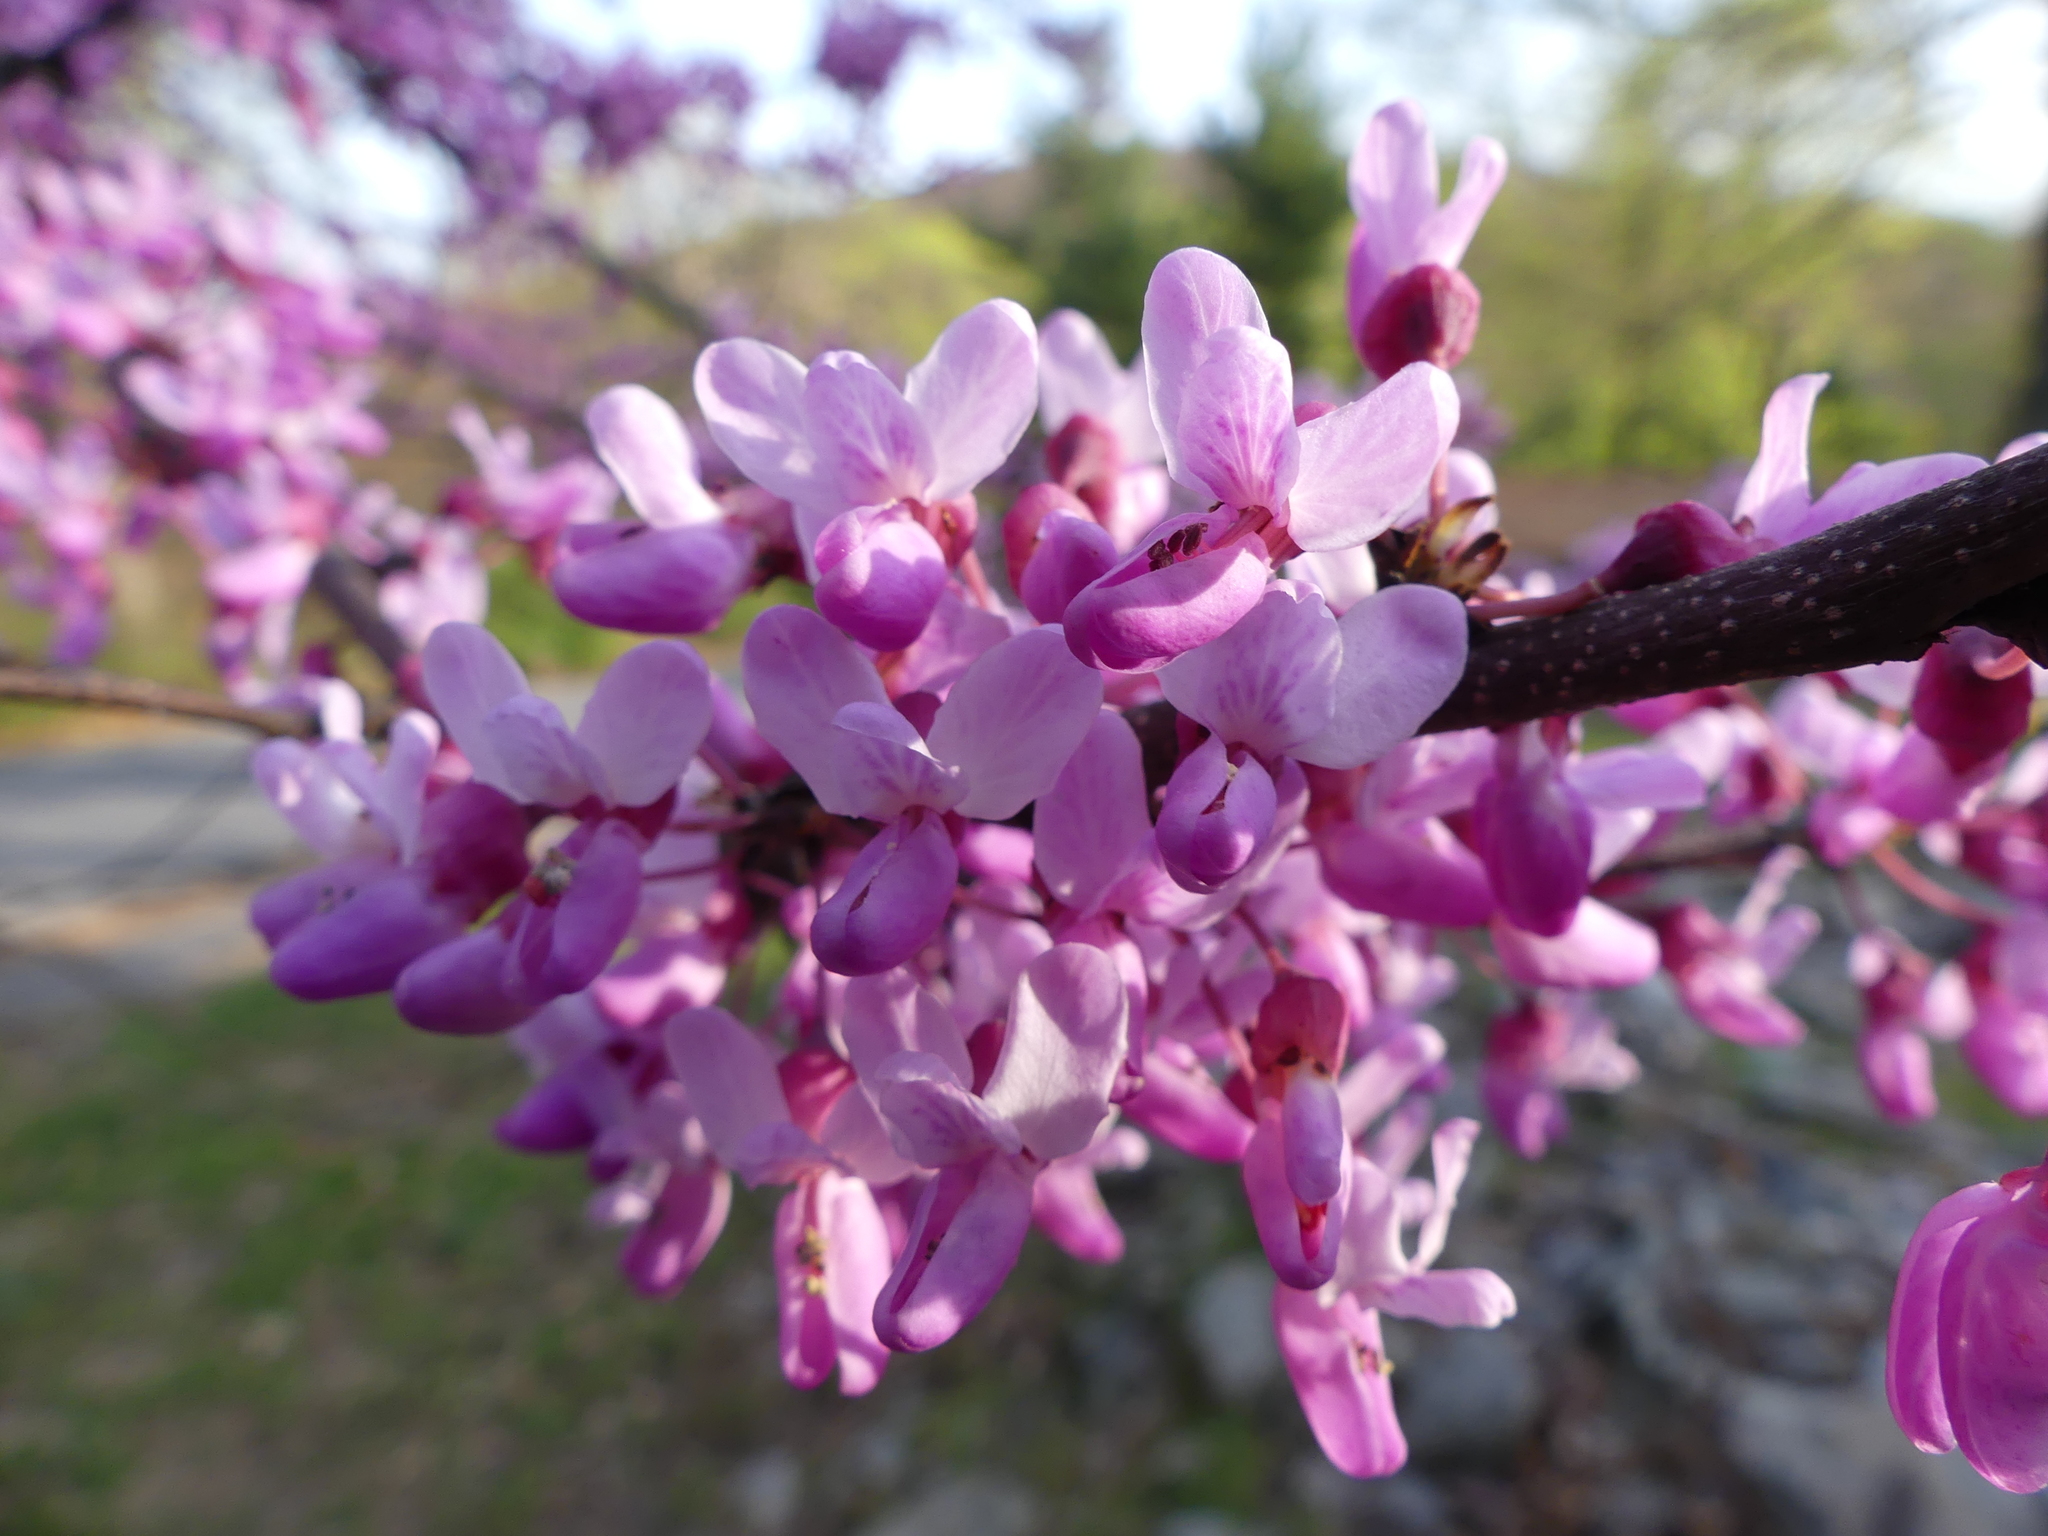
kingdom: Plantae
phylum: Tracheophyta
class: Magnoliopsida
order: Fabales
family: Fabaceae
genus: Cercis
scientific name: Cercis canadensis
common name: Eastern redbud
